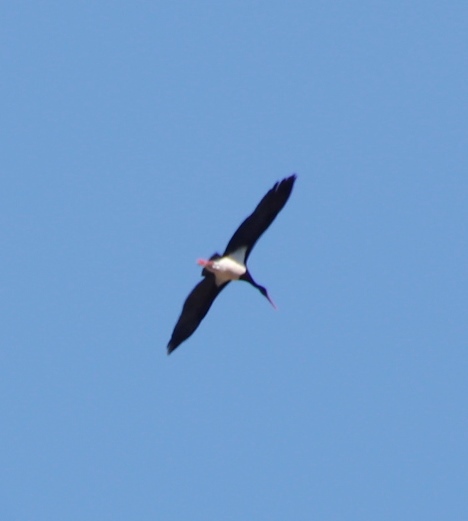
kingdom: Animalia
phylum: Chordata
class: Aves
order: Ciconiiformes
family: Ciconiidae
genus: Ciconia
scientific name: Ciconia nigra
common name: Black stork
